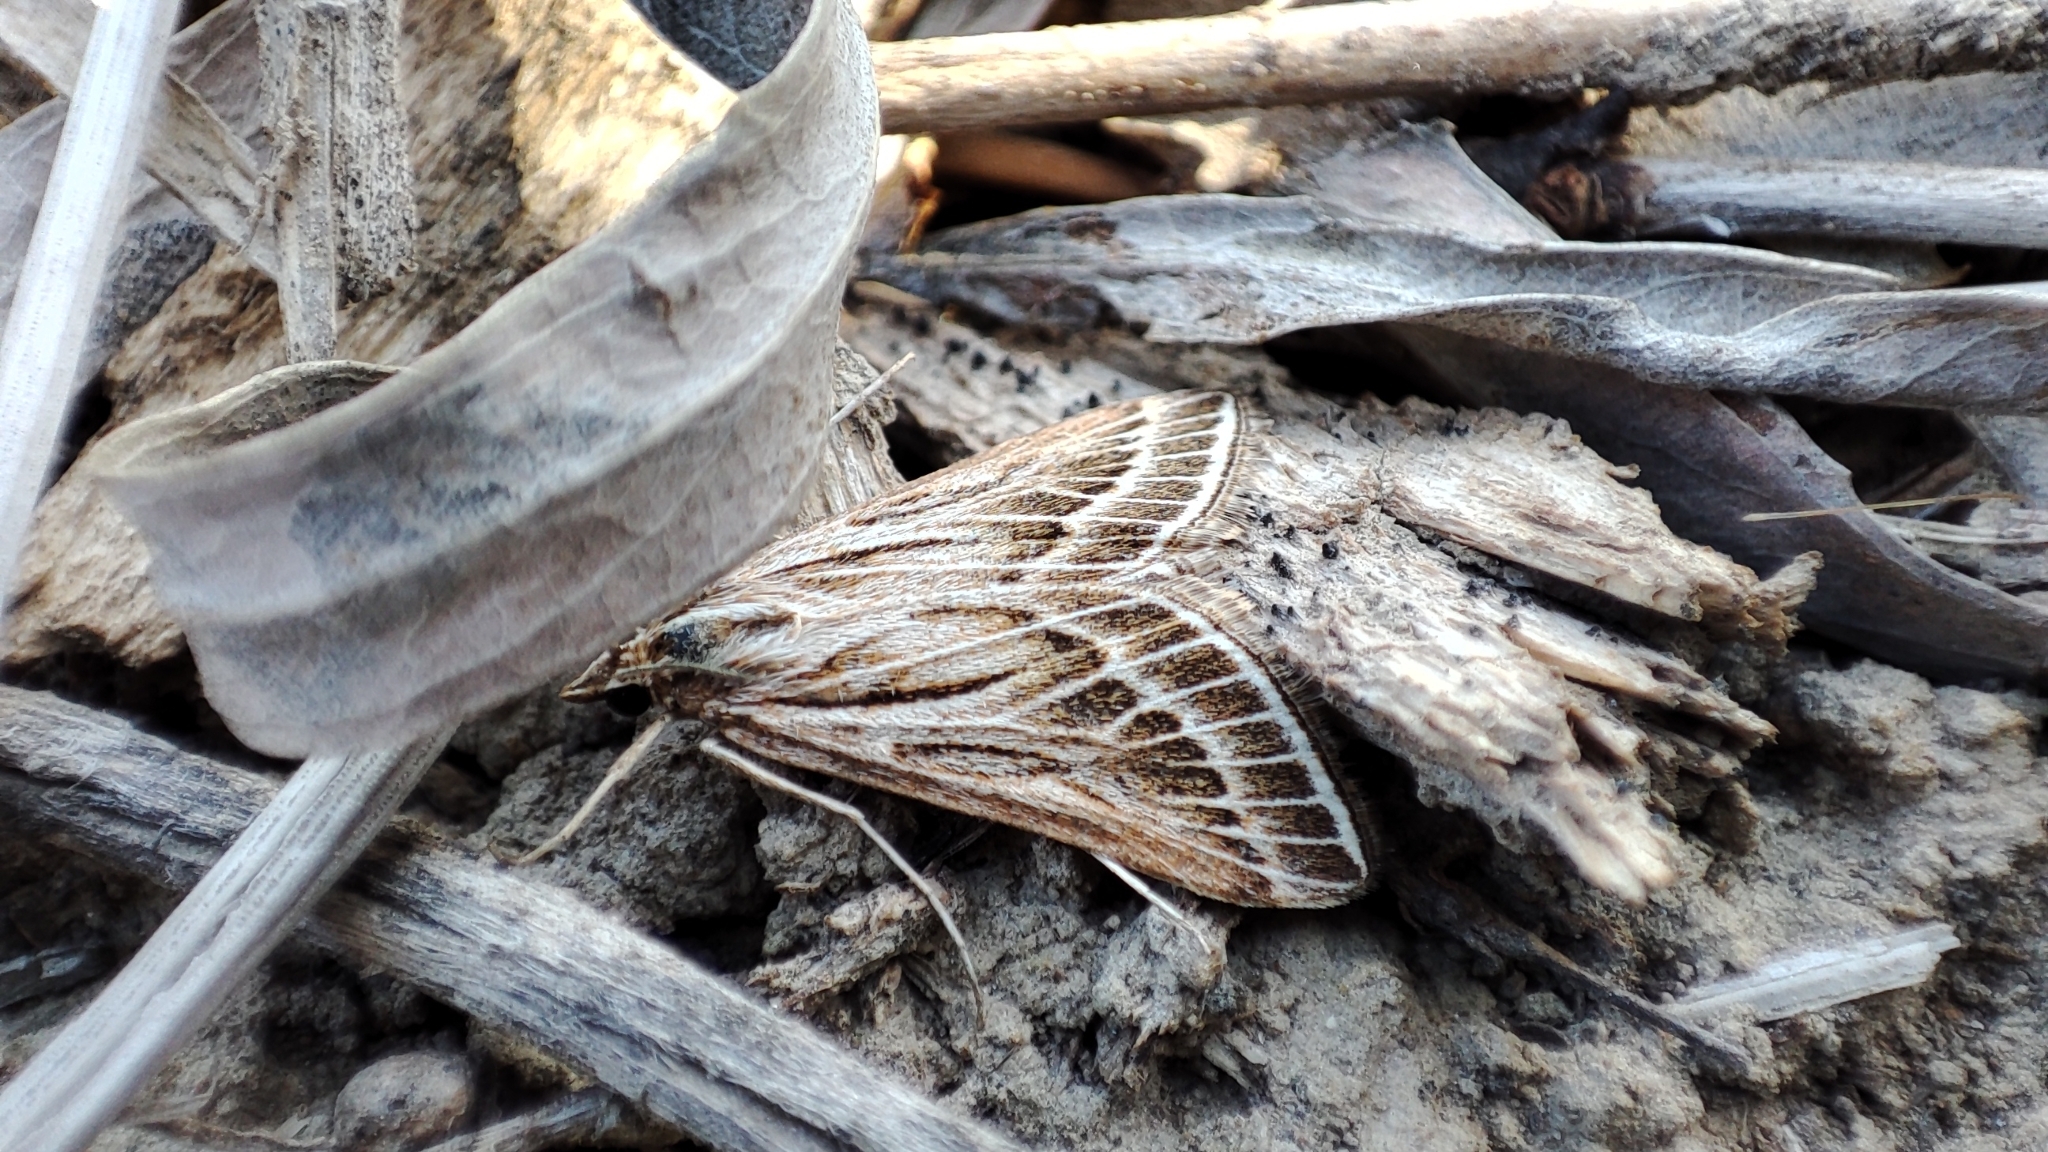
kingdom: Animalia
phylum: Arthropoda
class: Insecta
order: Lepidoptera
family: Crambidae
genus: Pyrausta
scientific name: Pyrausta scalaralis
